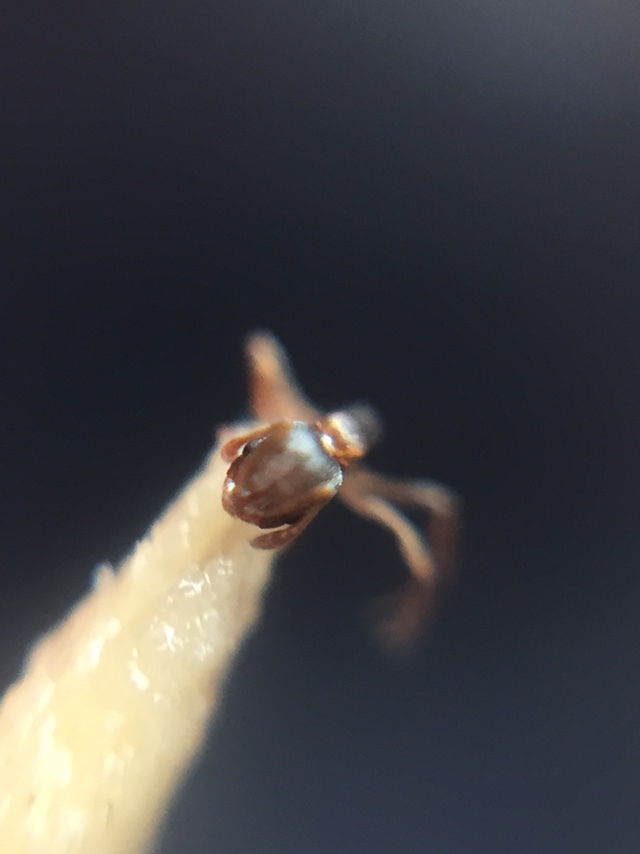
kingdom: Animalia
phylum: Arthropoda
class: Insecta
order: Hymenoptera
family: Formicidae
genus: Cardiocondyla
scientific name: Cardiocondyla minutior
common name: Ant
